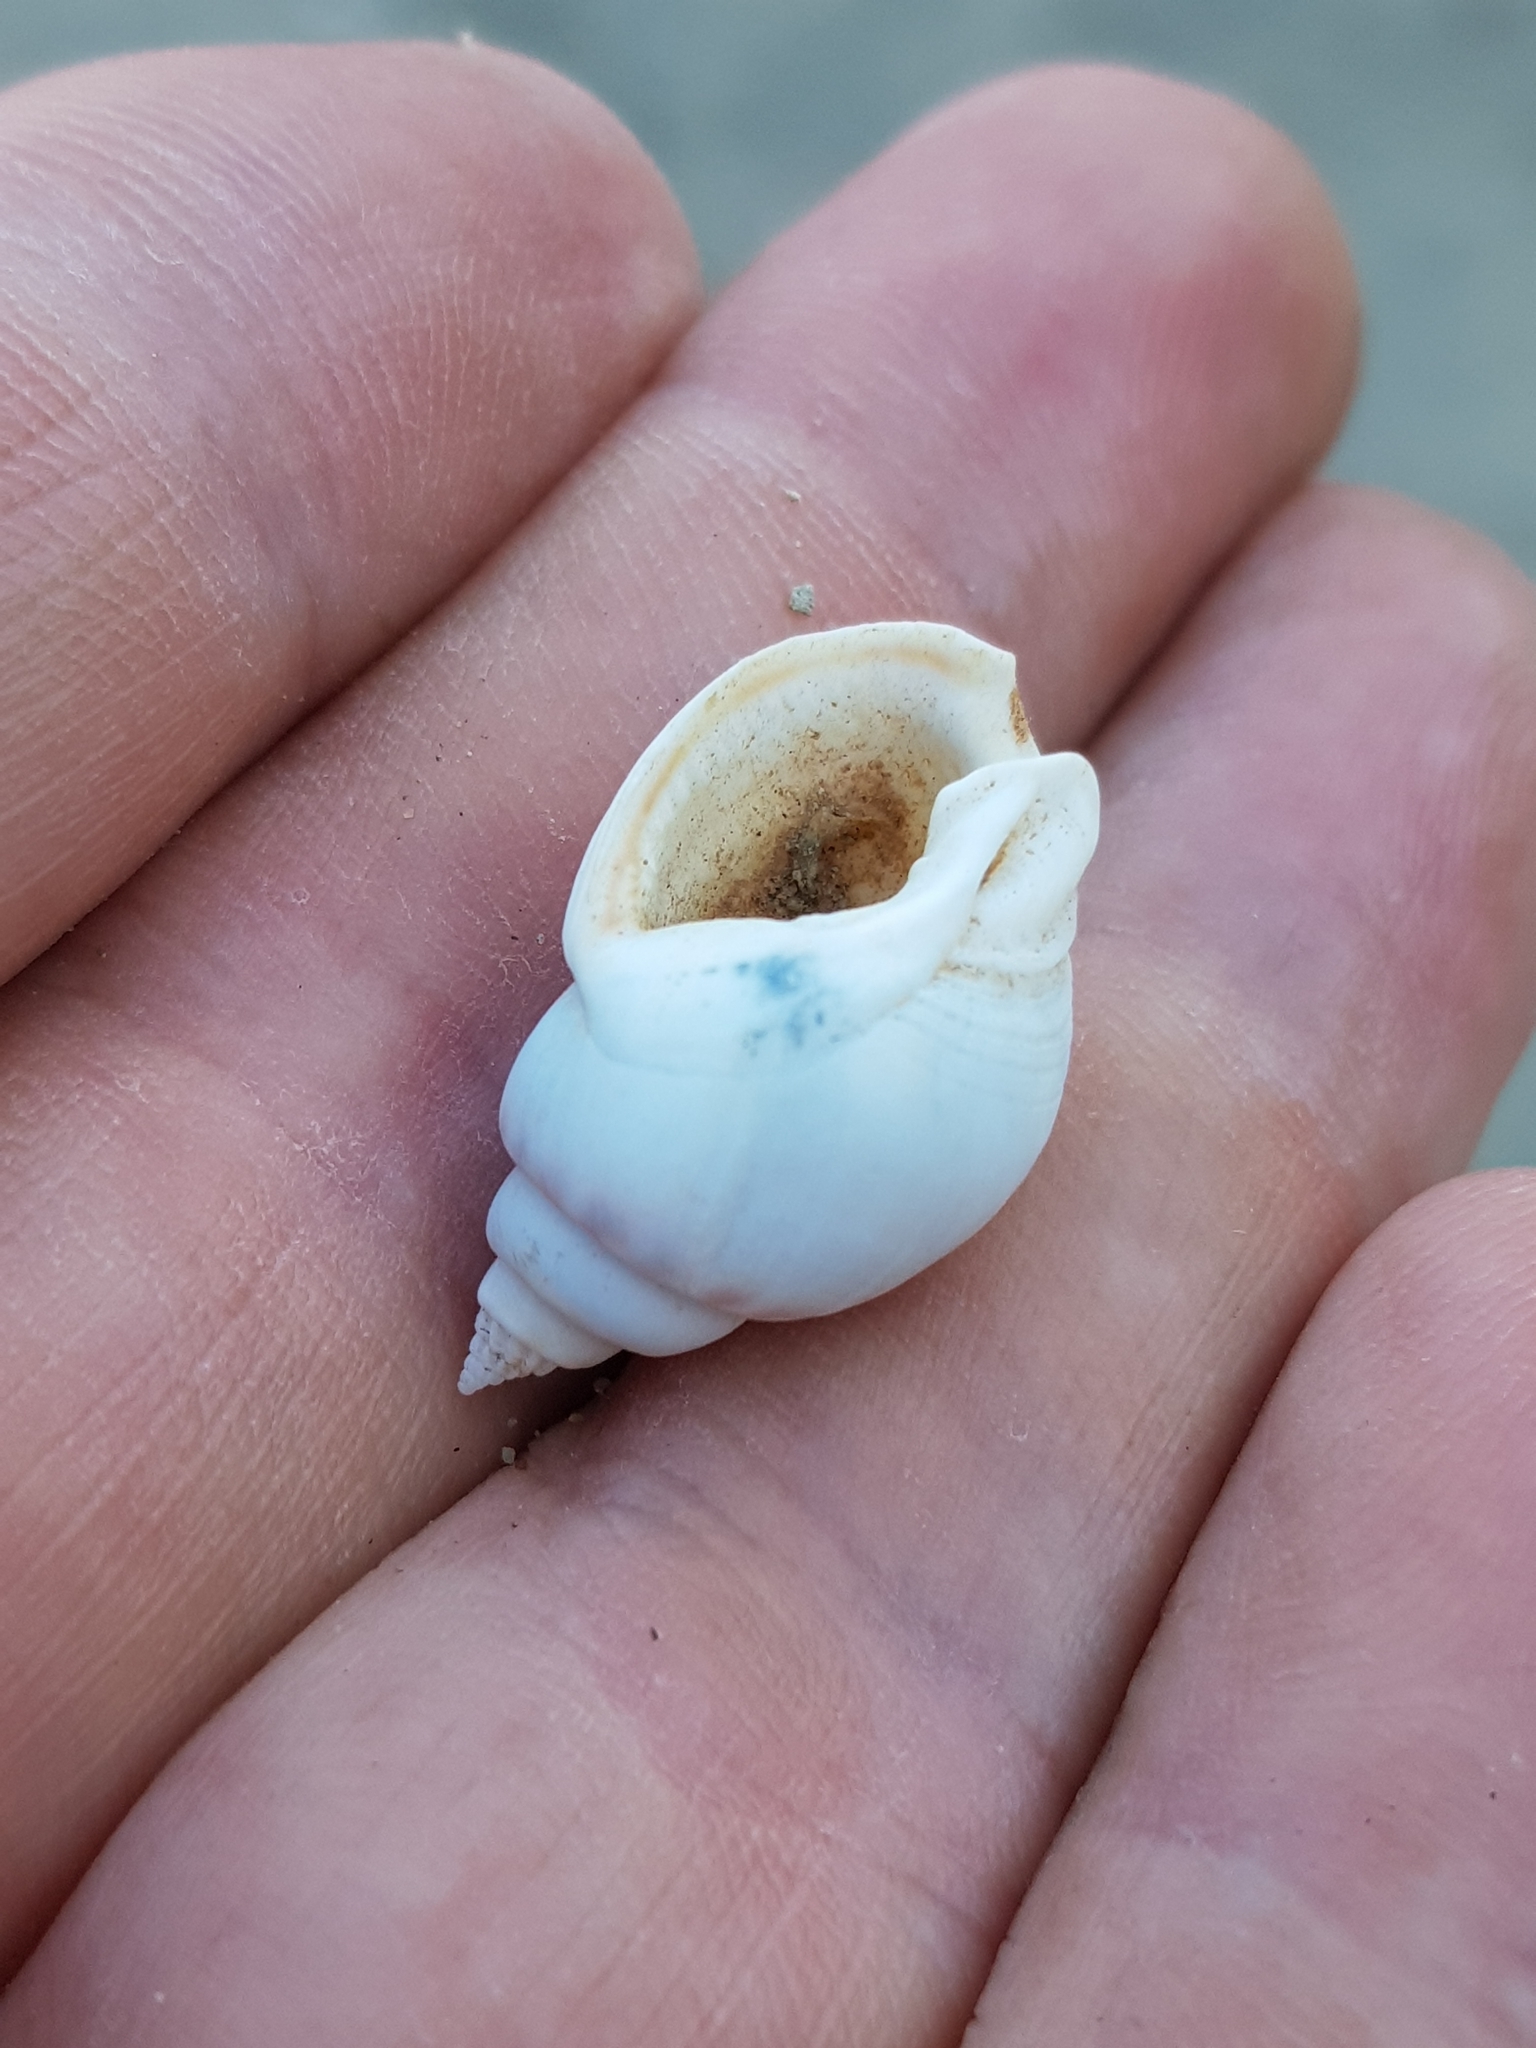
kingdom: Animalia
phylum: Mollusca
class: Gastropoda
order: Neogastropoda
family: Nassariidae
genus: Tritia
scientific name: Tritia mutabilis
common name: Mutable nassa
